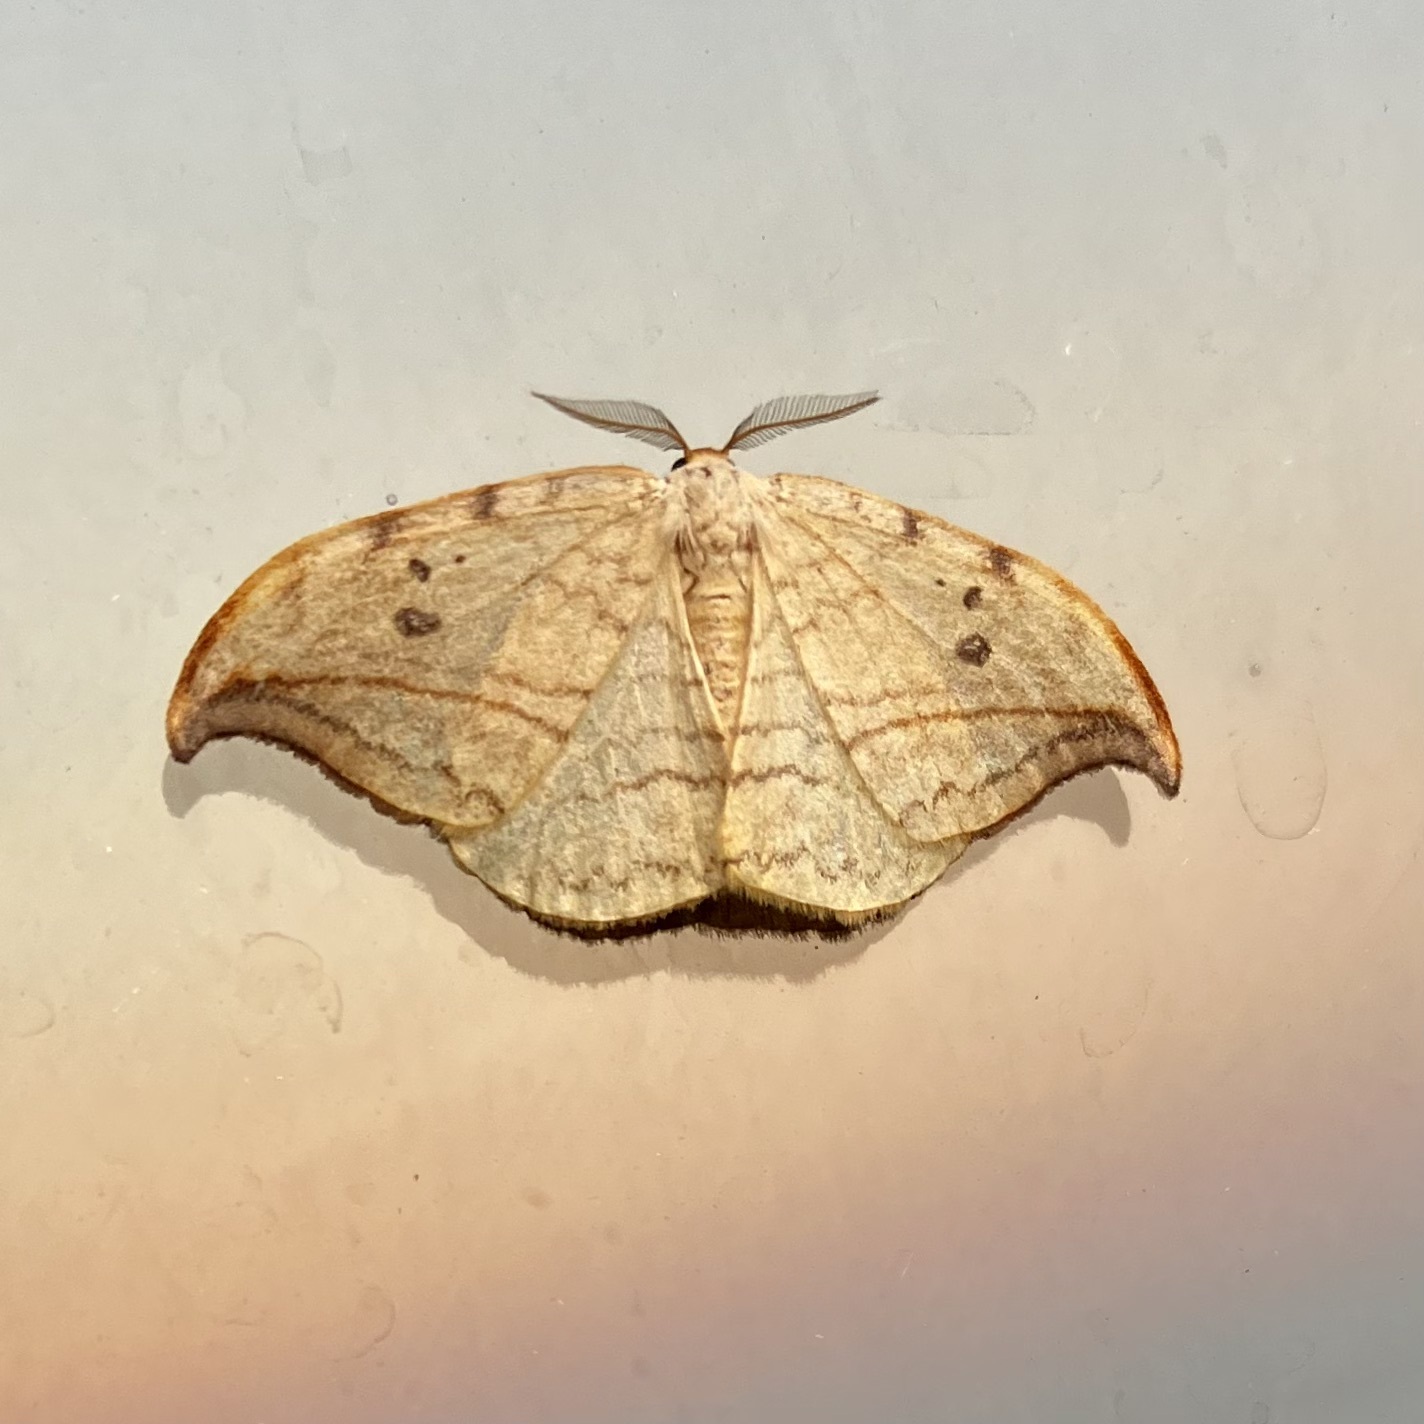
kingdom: Animalia
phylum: Arthropoda
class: Insecta
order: Lepidoptera
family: Drepanidae
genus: Drepana
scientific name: Drepana arcuata
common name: Arched hooktip moth
